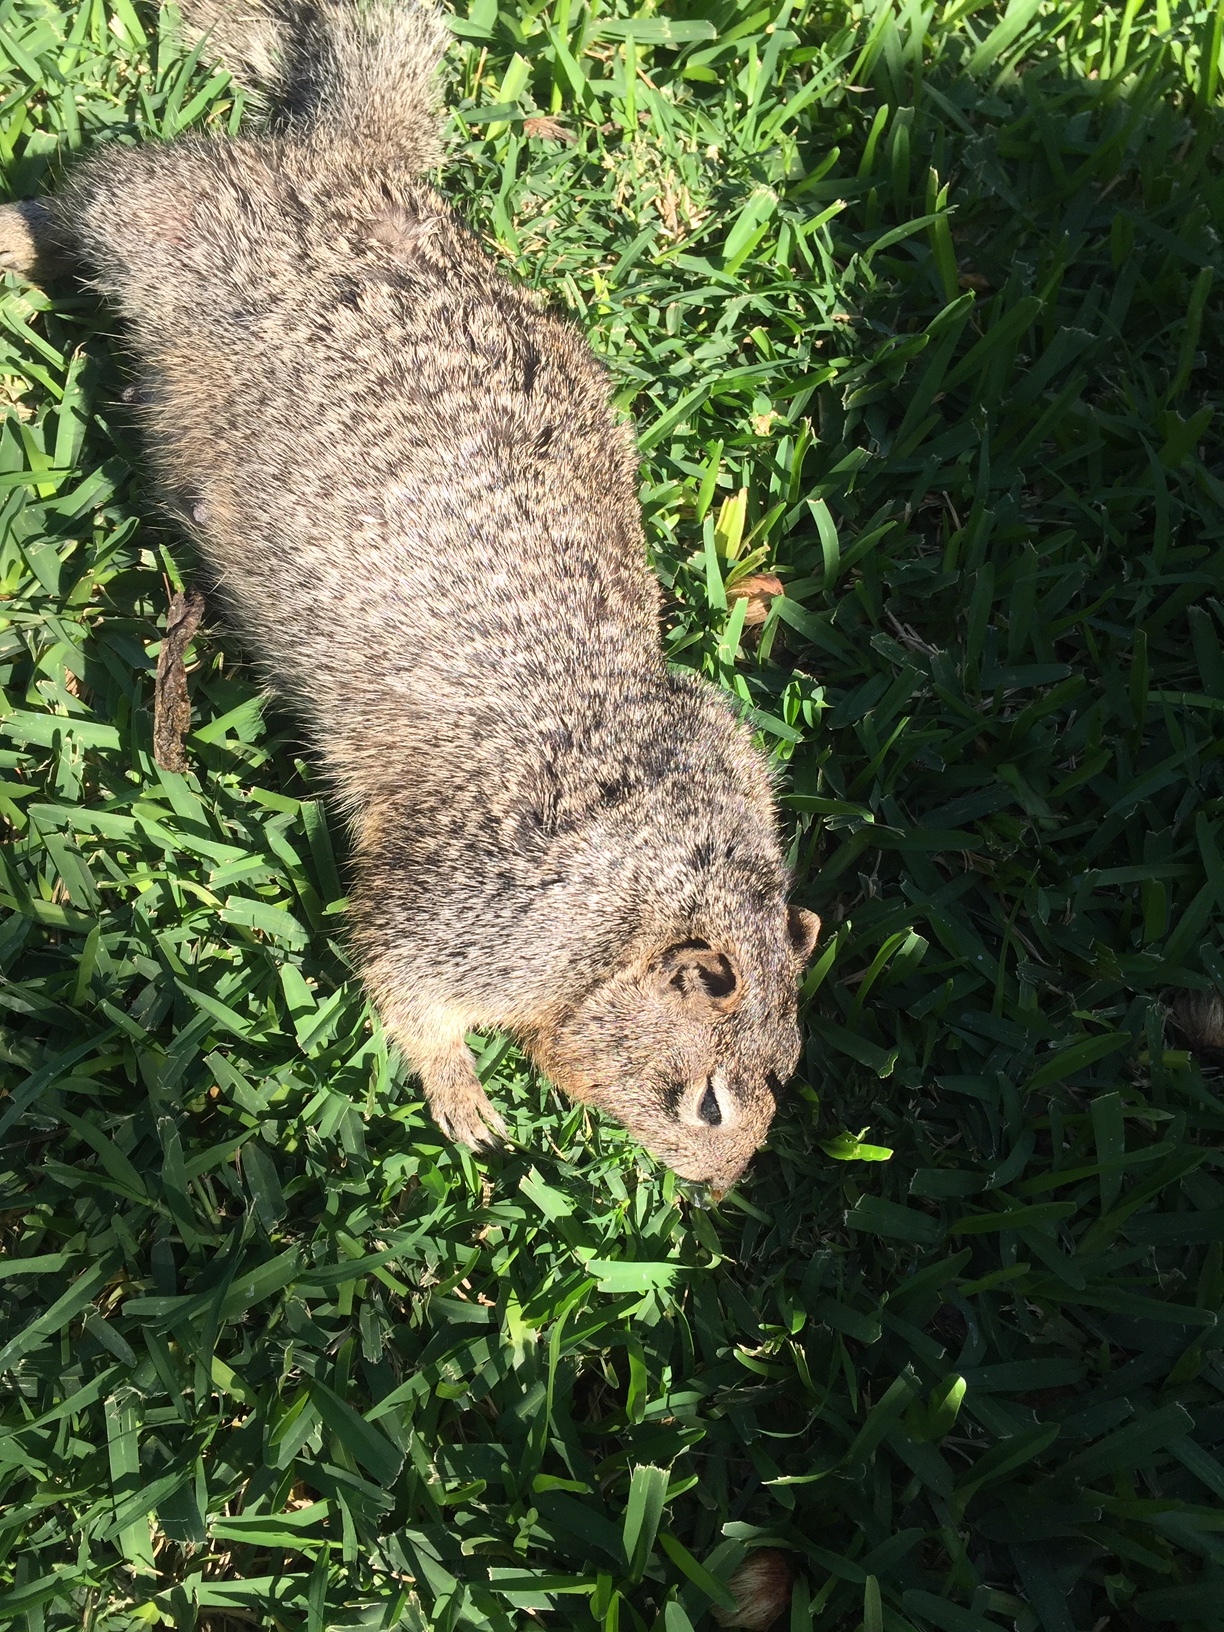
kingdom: Animalia
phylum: Chordata
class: Mammalia
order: Rodentia
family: Sciuridae
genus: Otospermophilus
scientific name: Otospermophilus variegatus
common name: Rock squirrel
